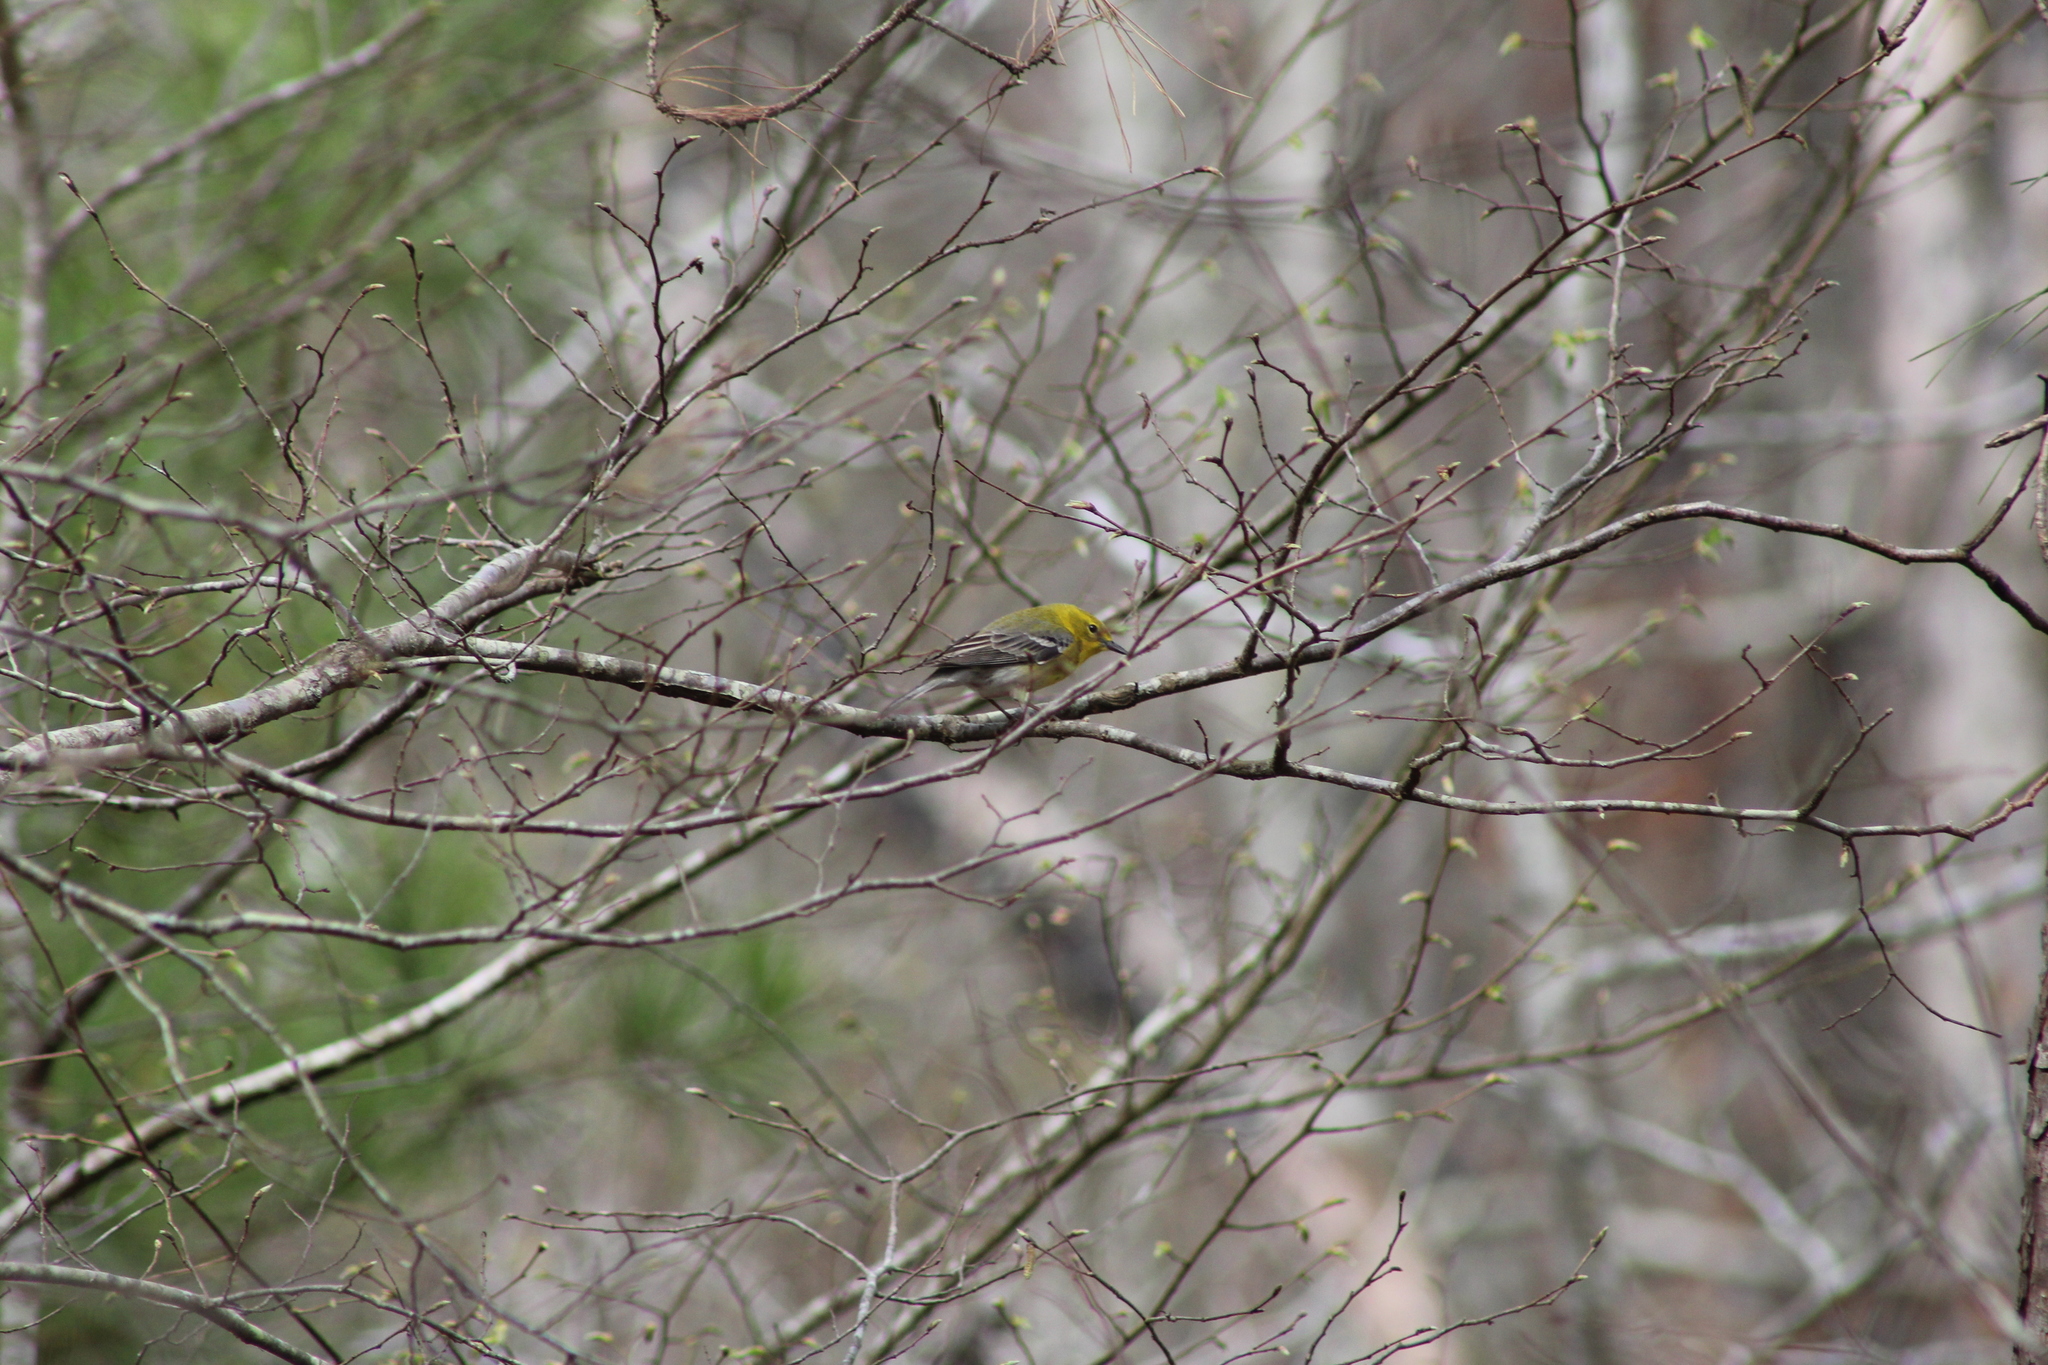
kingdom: Animalia
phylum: Chordata
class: Aves
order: Passeriformes
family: Parulidae
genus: Setophaga
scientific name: Setophaga pinus
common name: Pine warbler
